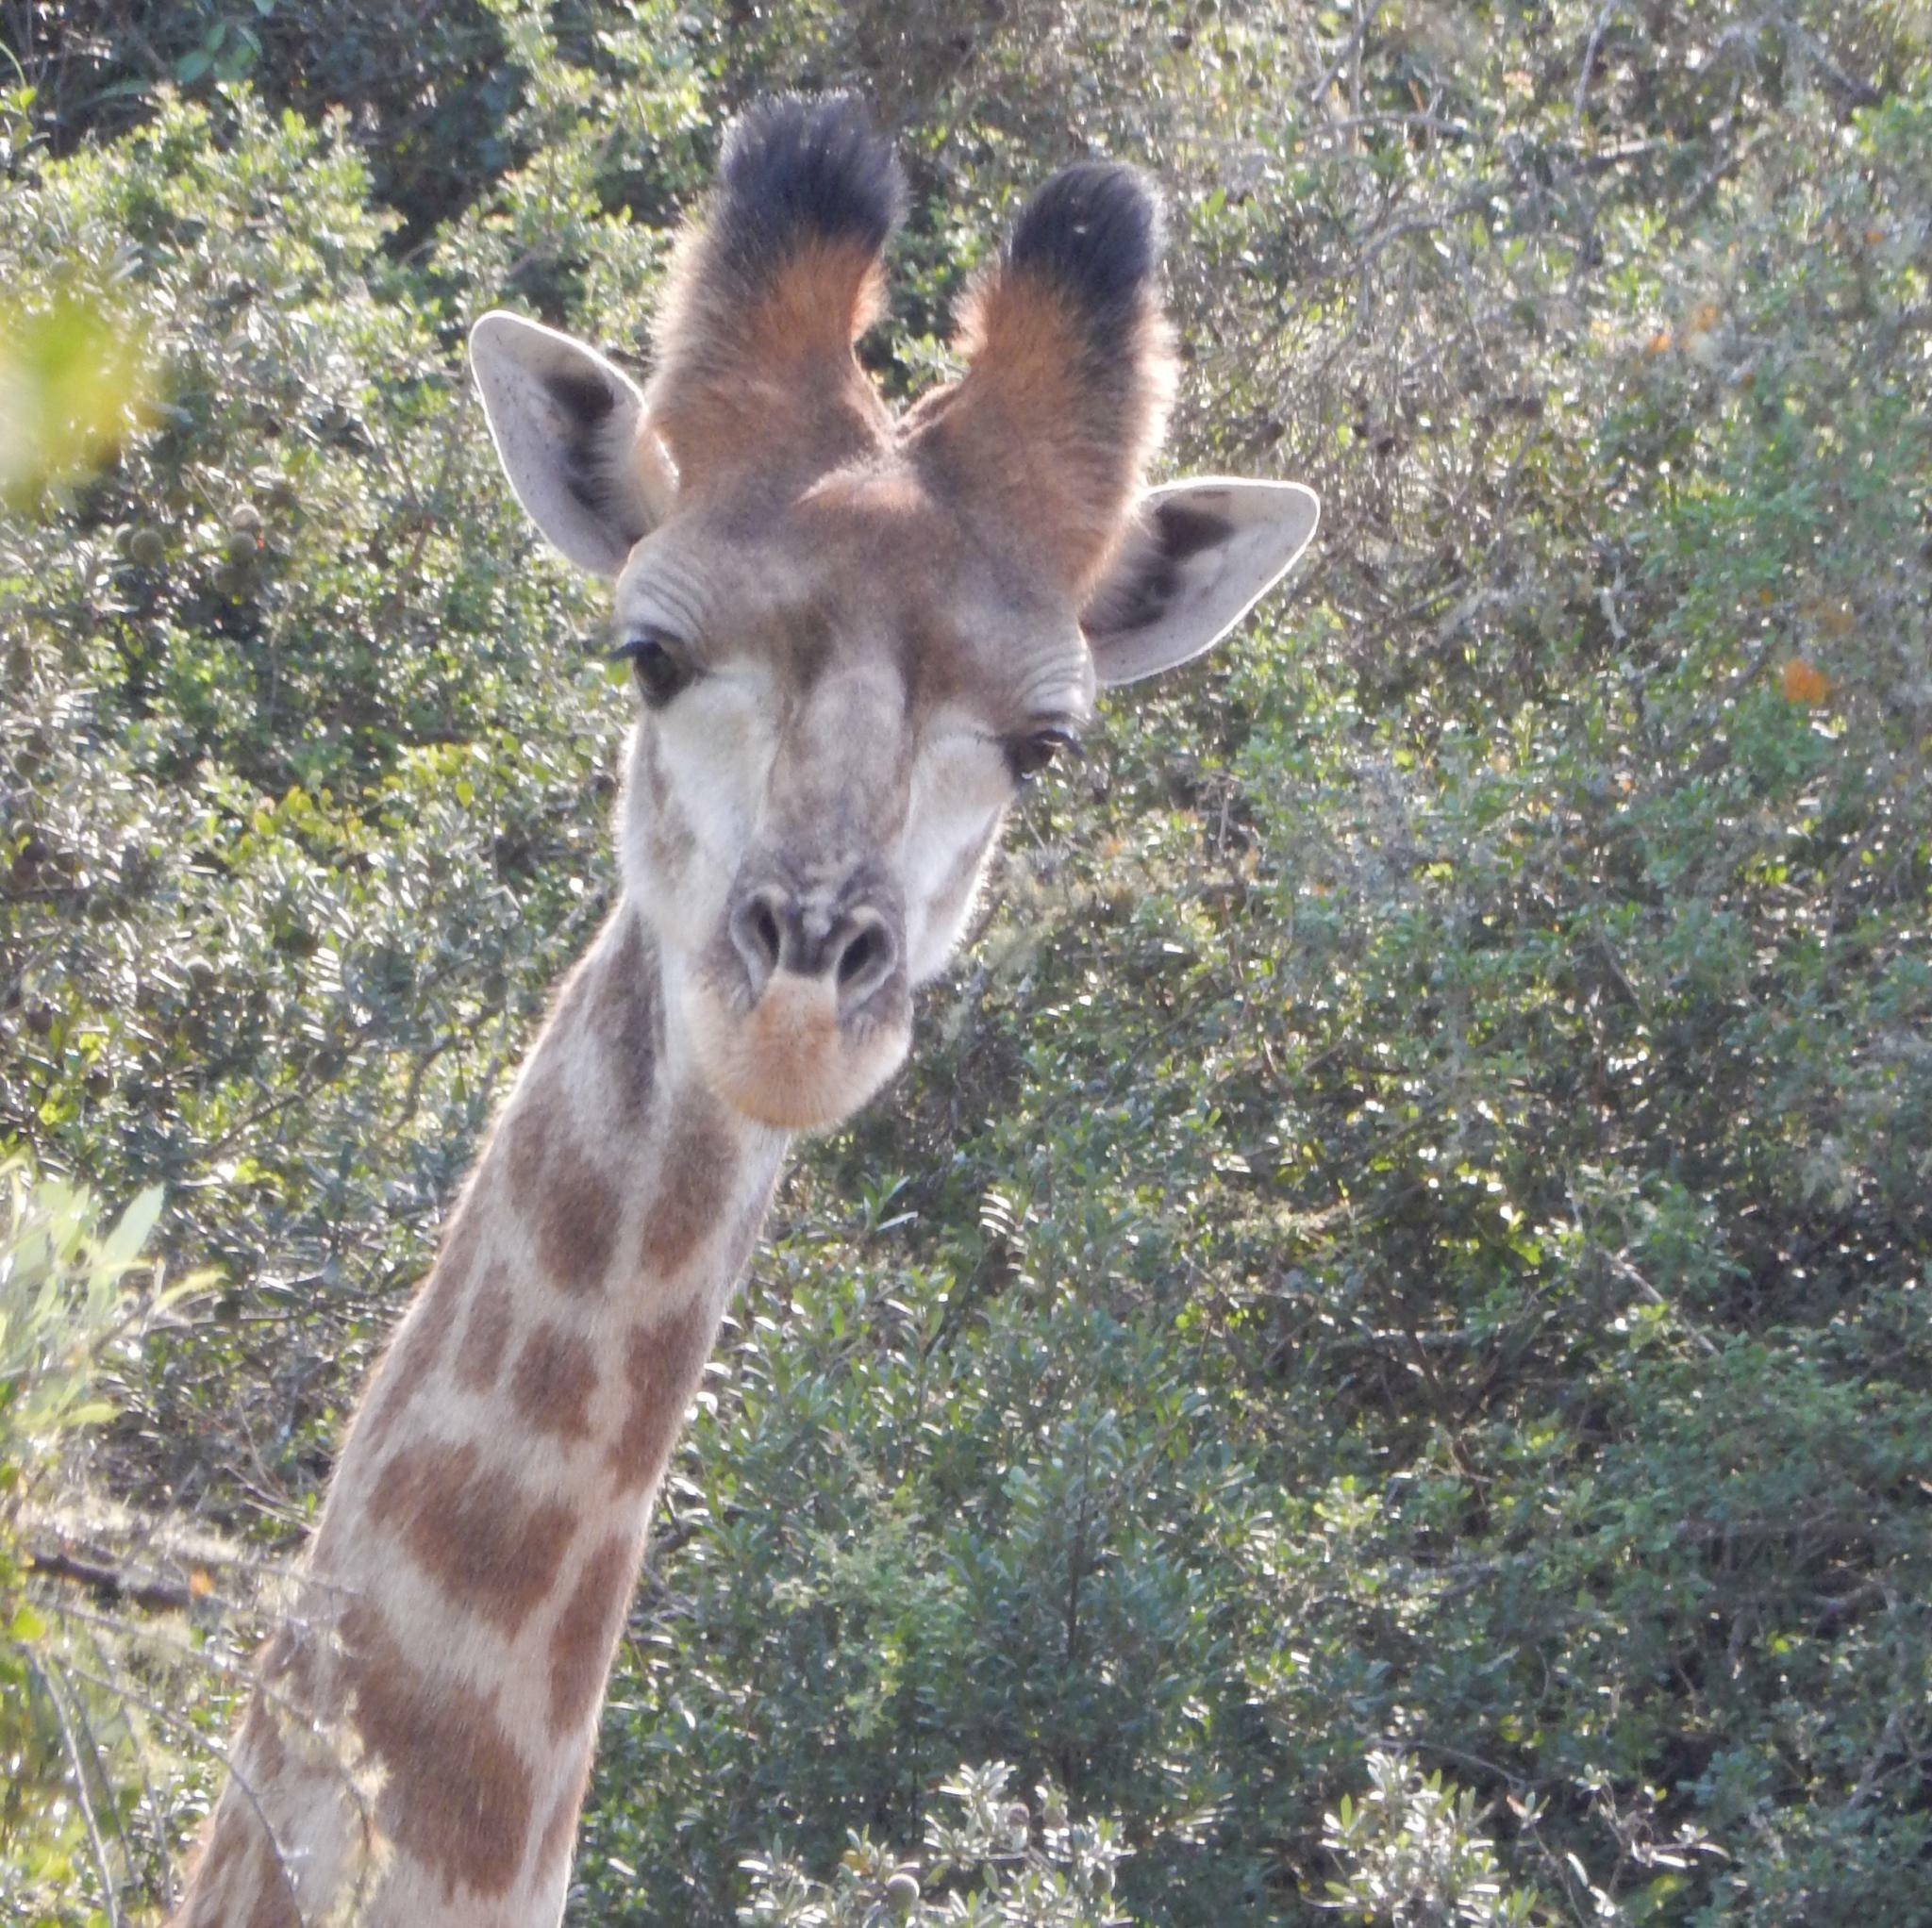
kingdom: Animalia
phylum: Chordata
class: Mammalia
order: Artiodactyla
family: Giraffidae
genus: Giraffa
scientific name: Giraffa giraffa
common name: Southern giraffe
